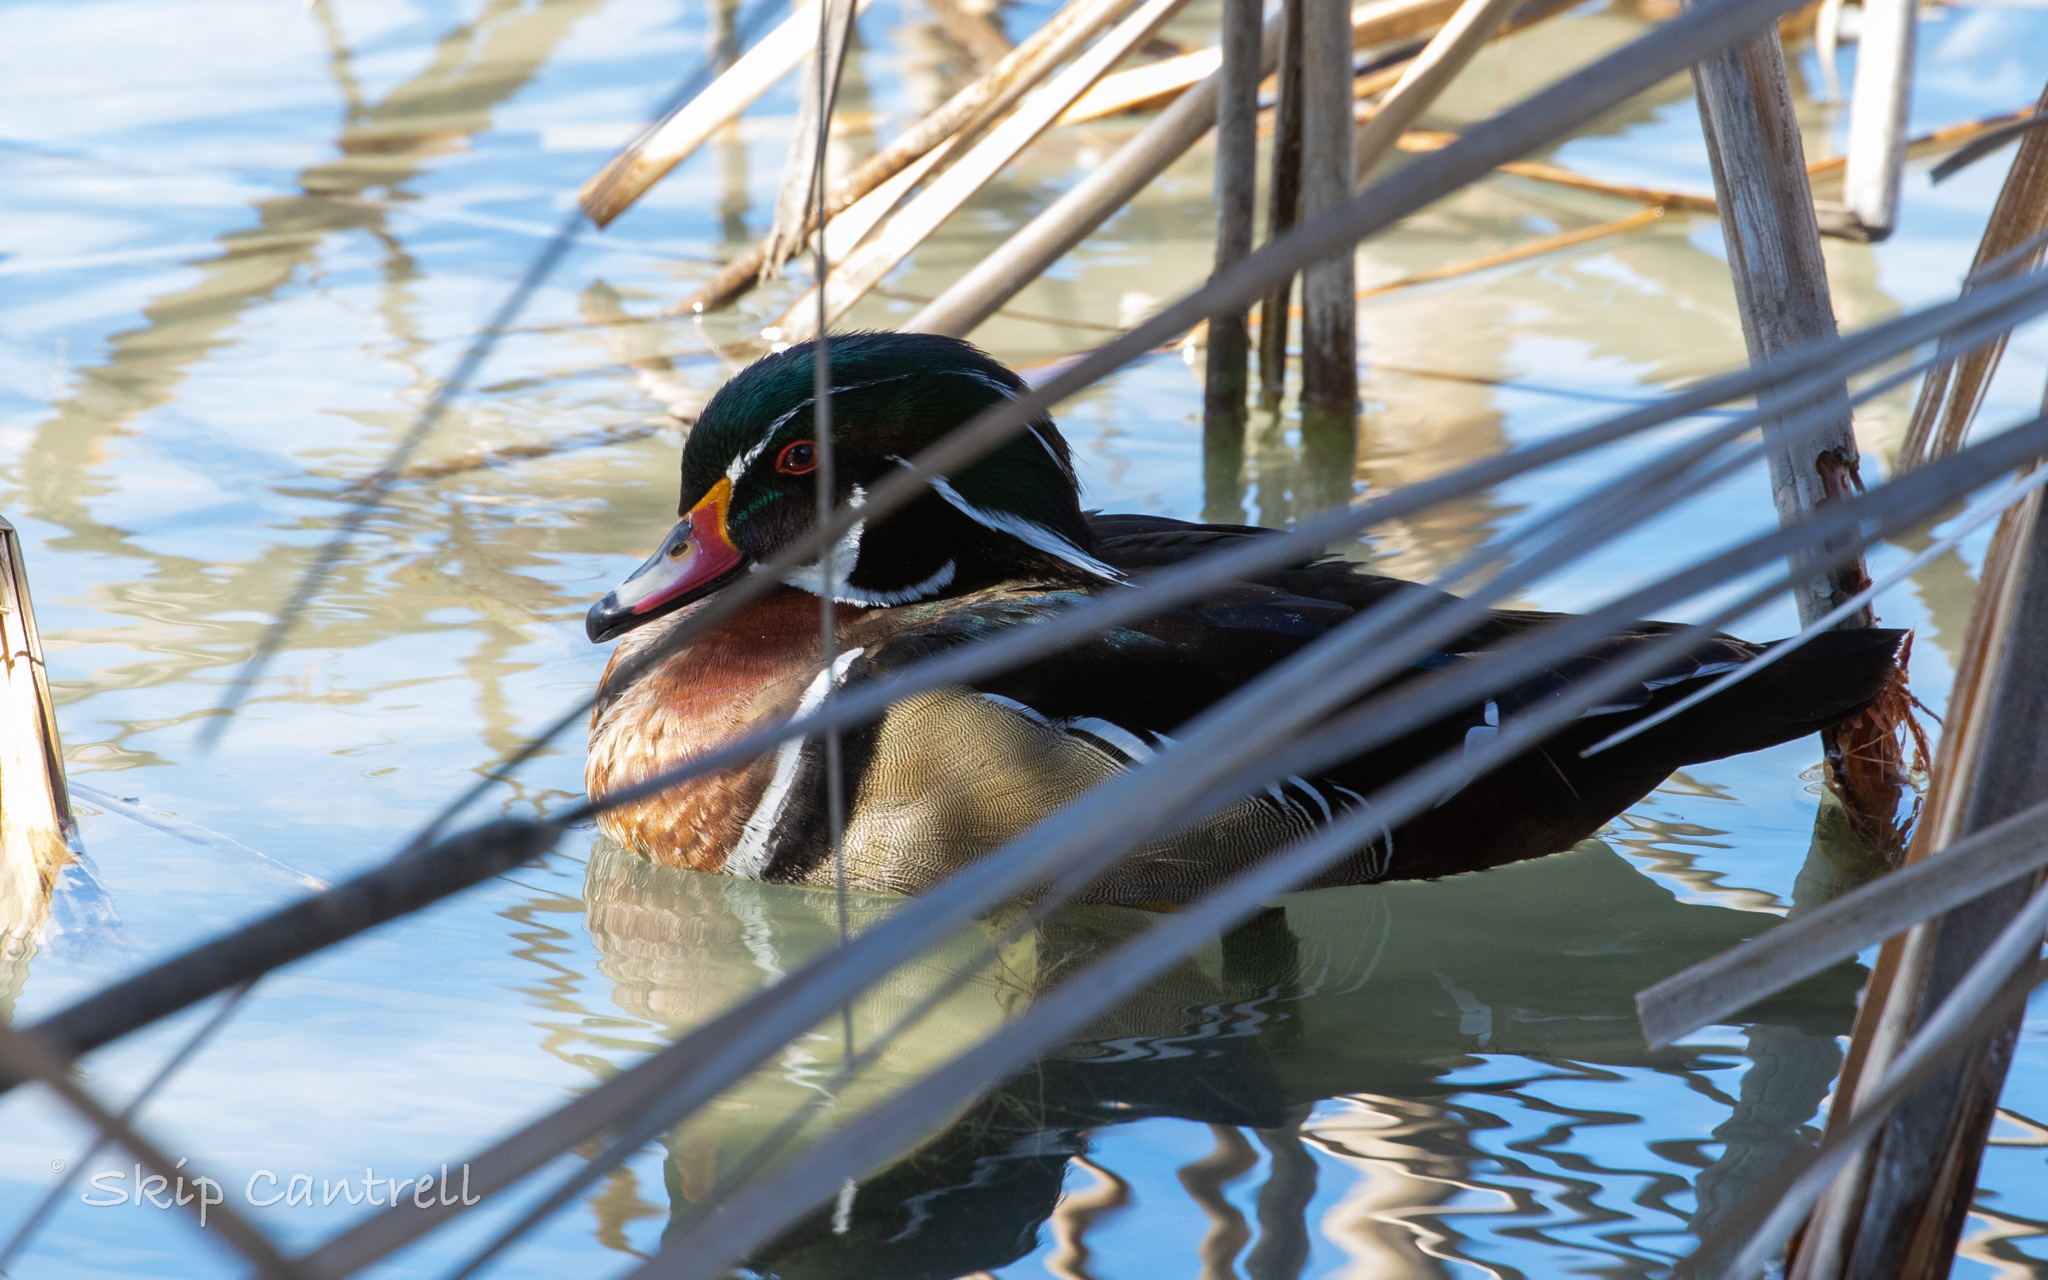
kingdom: Animalia
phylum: Chordata
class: Aves
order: Anseriformes
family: Anatidae
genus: Aix
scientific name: Aix sponsa
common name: Wood duck
